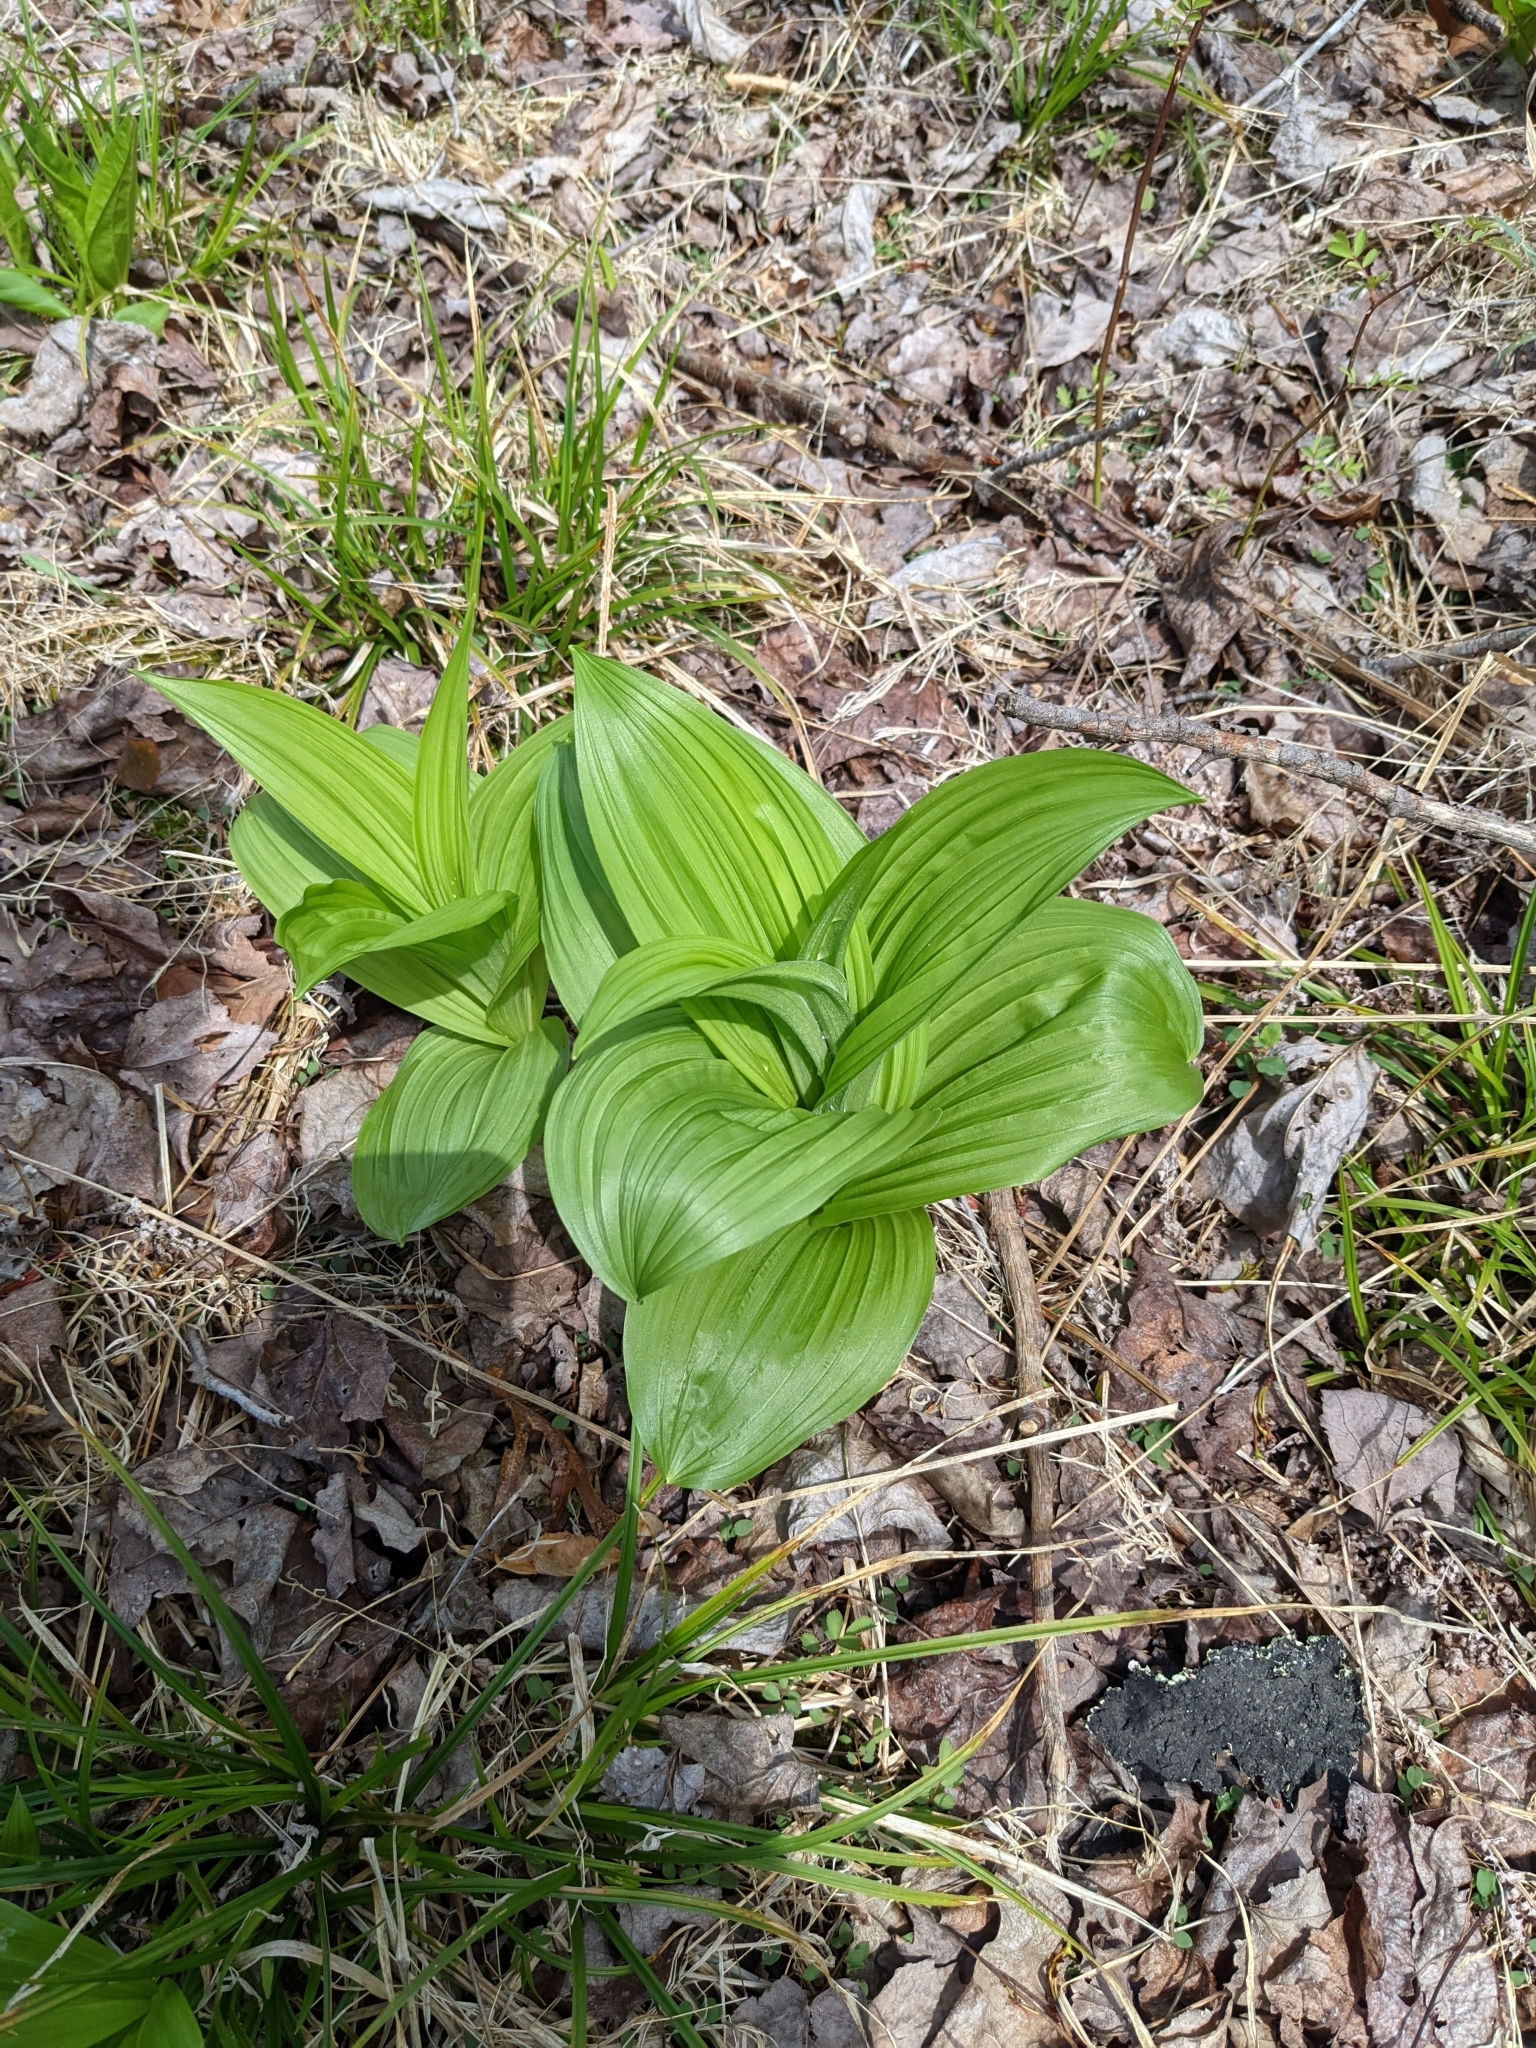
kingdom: Plantae
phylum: Tracheophyta
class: Liliopsida
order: Liliales
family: Melanthiaceae
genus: Veratrum
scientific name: Veratrum viride
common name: American false hellebore
